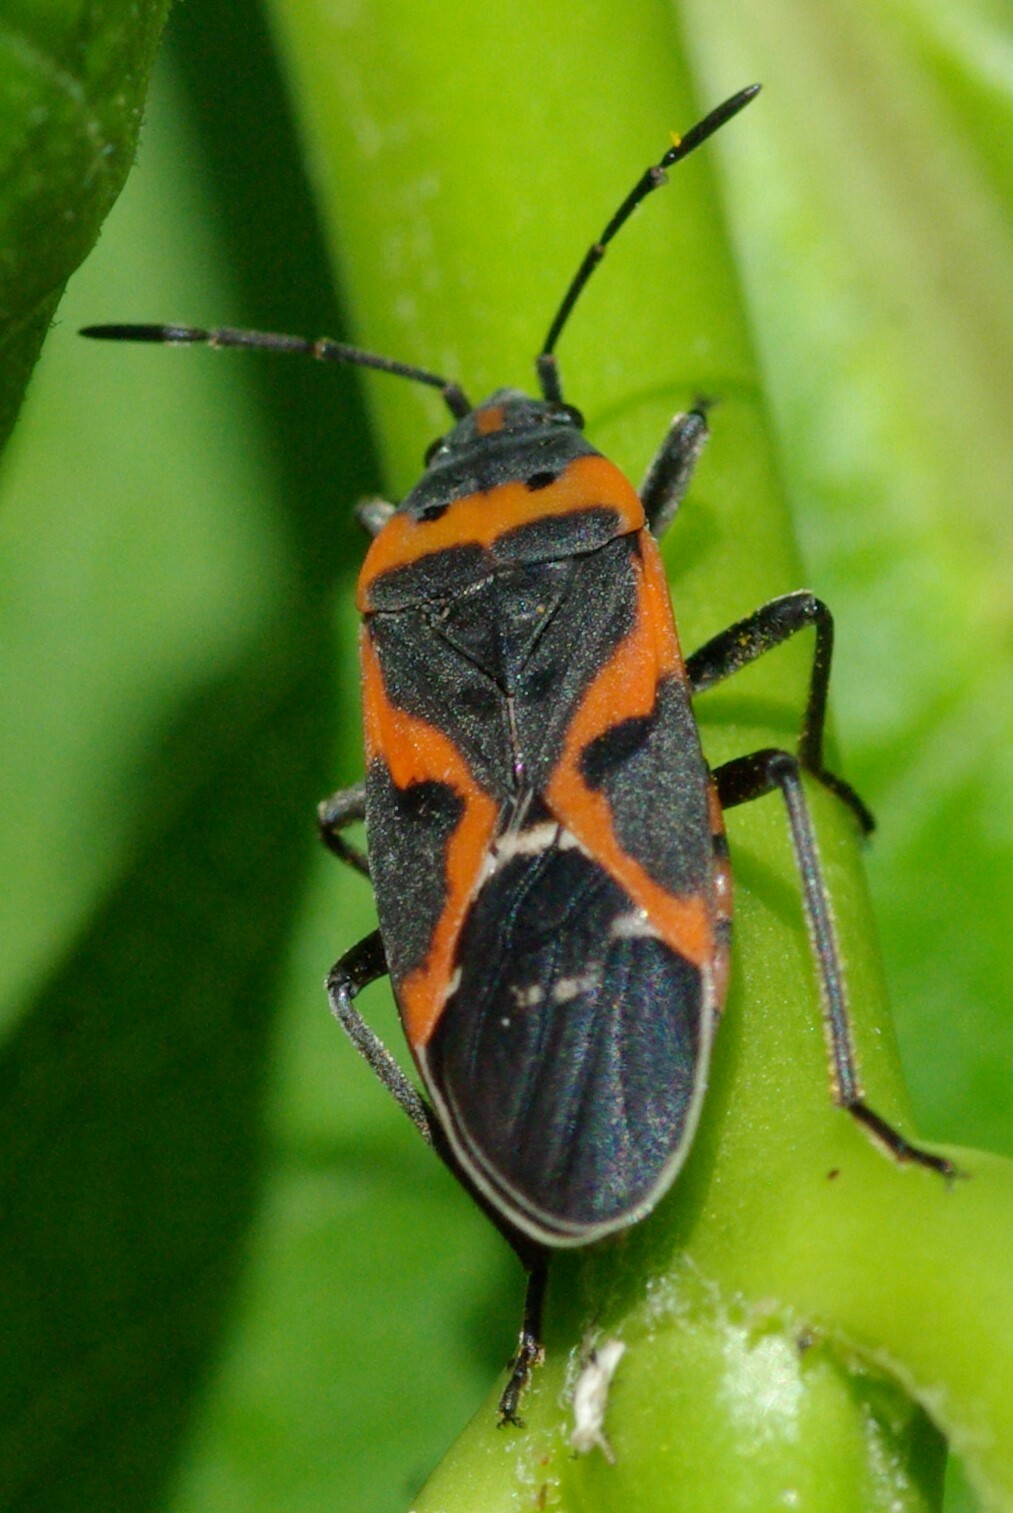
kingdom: Animalia
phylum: Arthropoda
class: Insecta
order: Hemiptera
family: Lygaeidae
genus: Lygaeus
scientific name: Lygaeus kalmii
